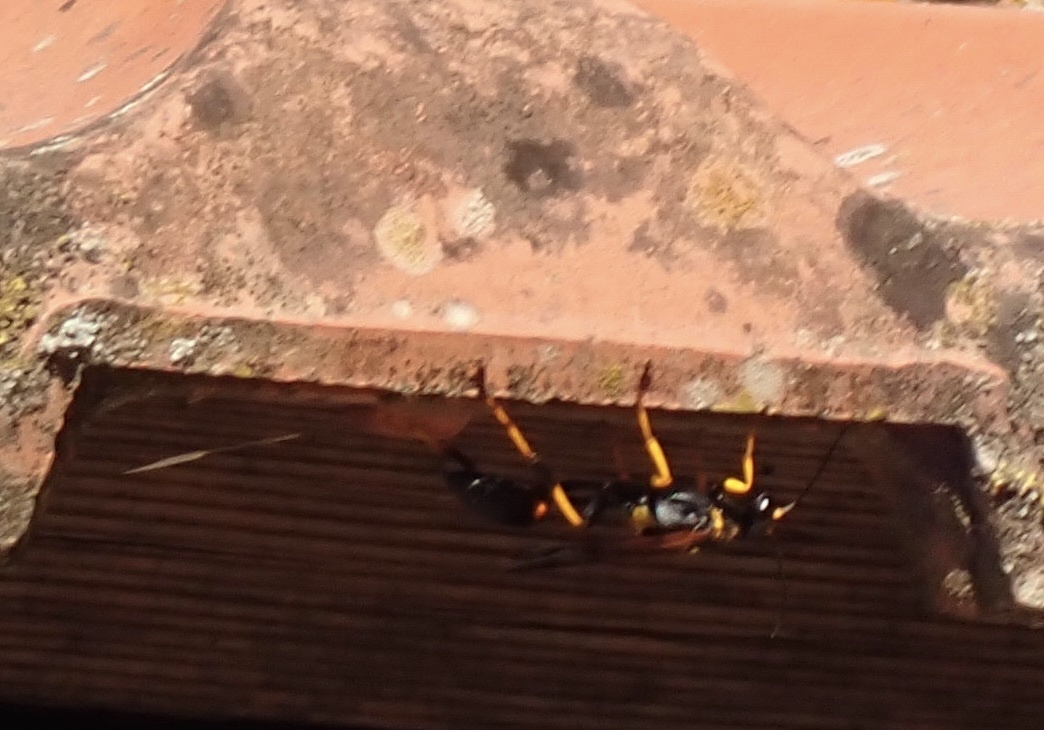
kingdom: Animalia
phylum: Arthropoda
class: Insecta
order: Hymenoptera
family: Sphecidae
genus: Sceliphron
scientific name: Sceliphron caementarium
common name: Mud dauber
